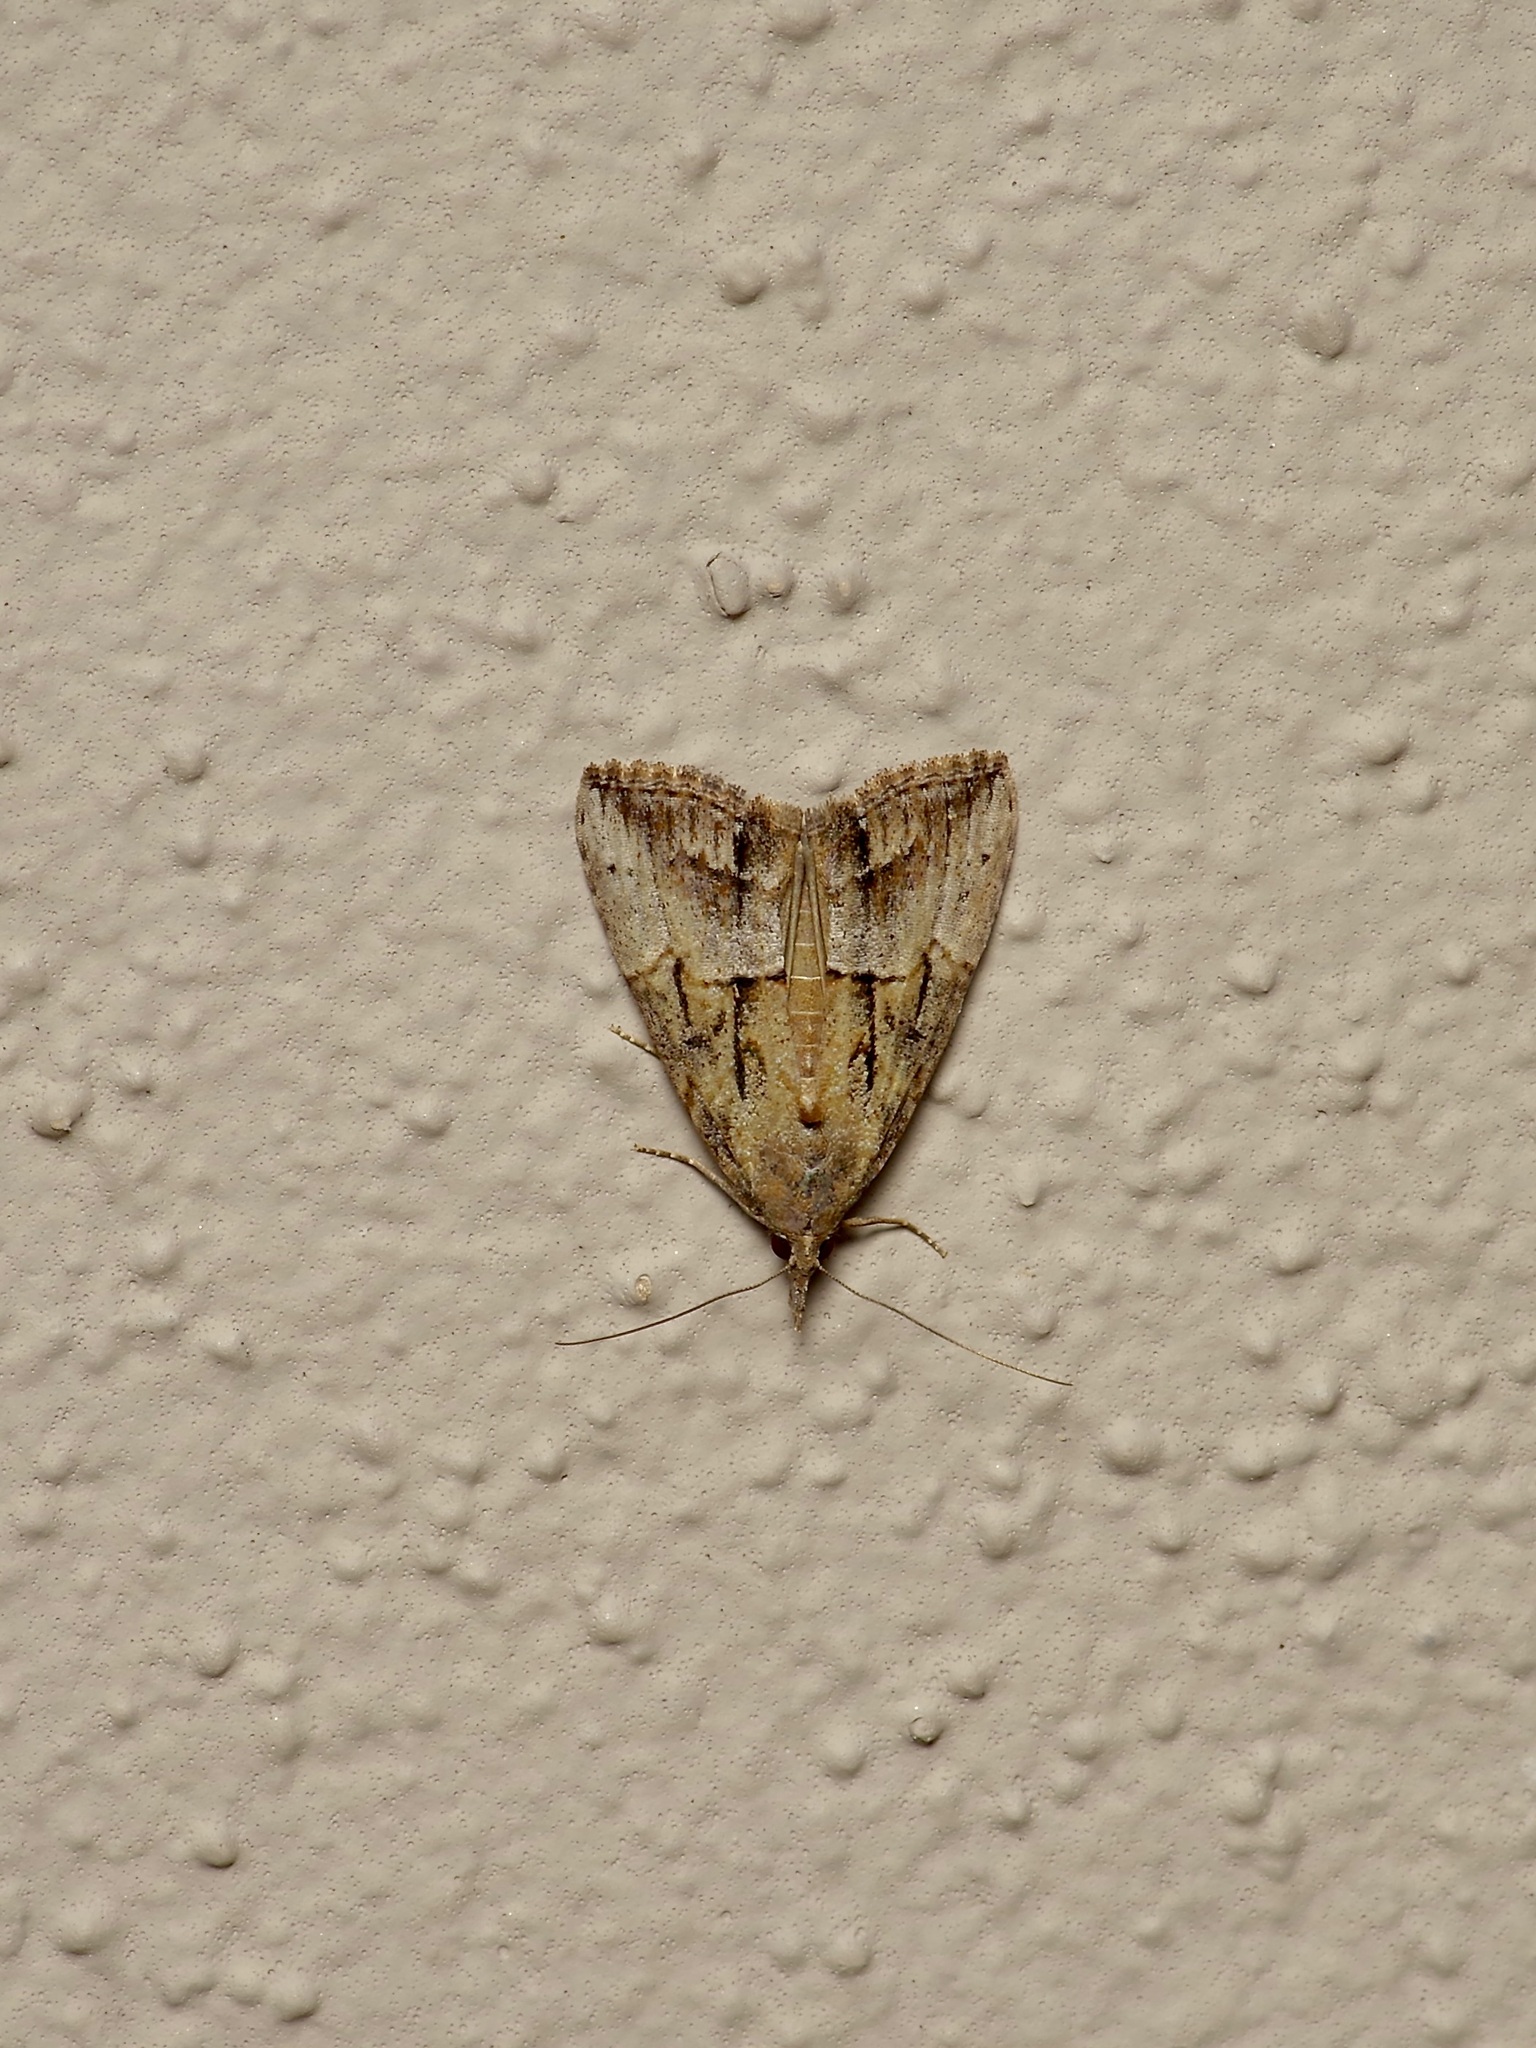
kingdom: Animalia
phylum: Arthropoda
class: Insecta
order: Lepidoptera
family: Erebidae
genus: Hypena
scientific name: Hypena scabra
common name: Green cloverworm
